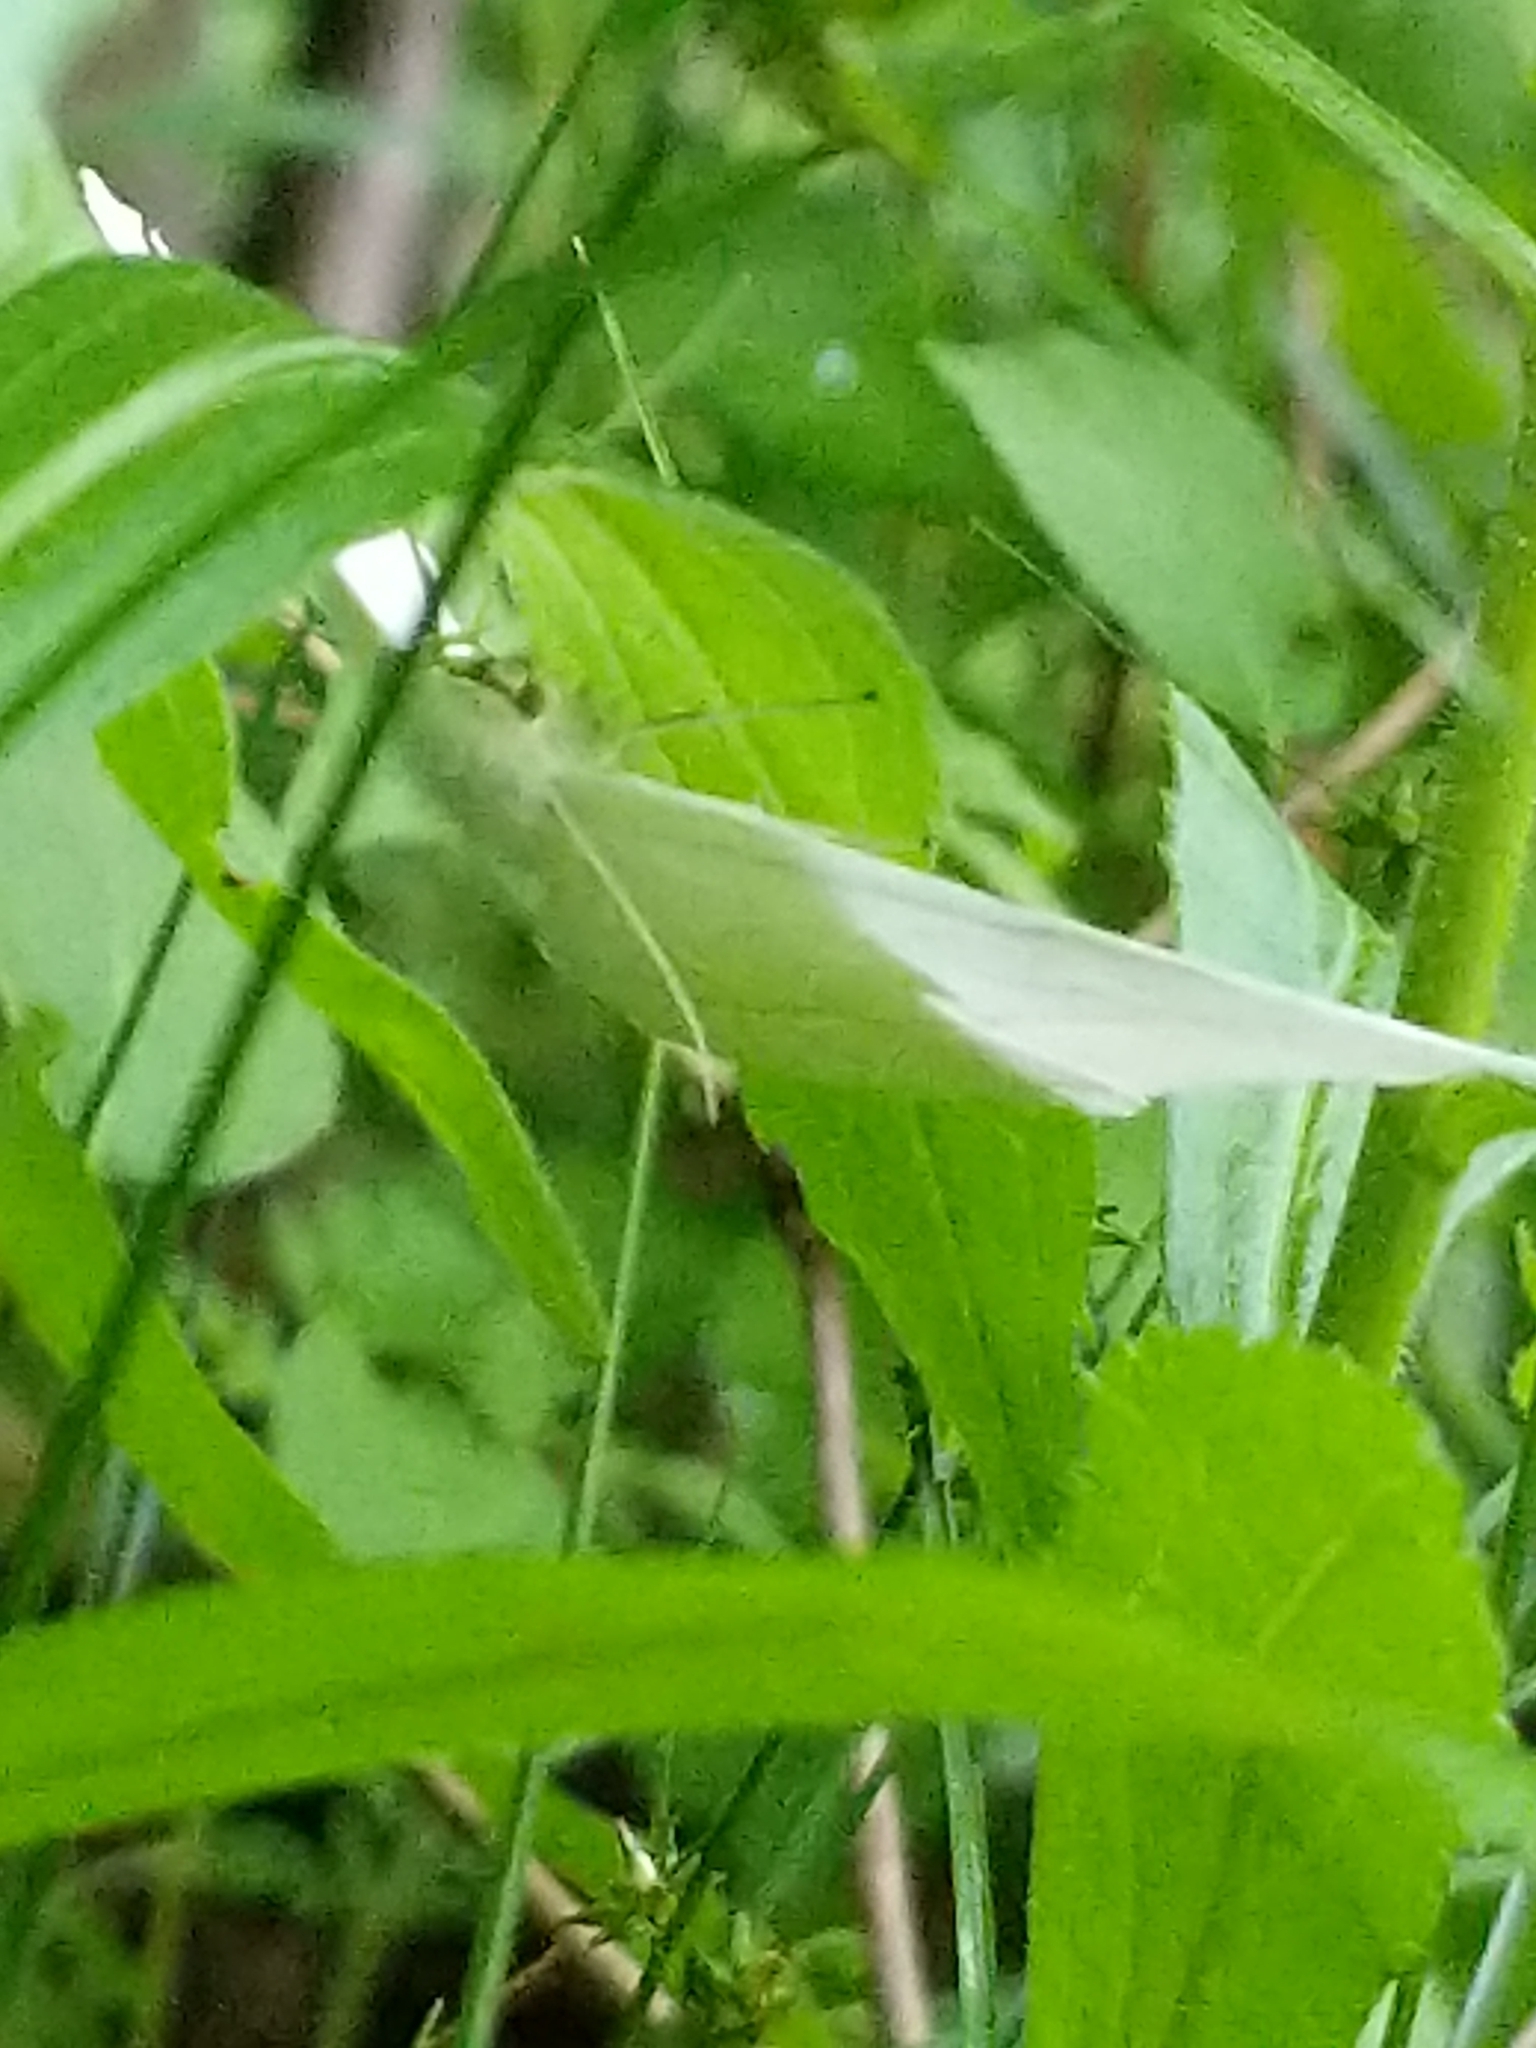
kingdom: Animalia
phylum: Arthropoda
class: Insecta
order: Lepidoptera
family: Geometridae
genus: Campaea
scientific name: Campaea perlata
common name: Fringed looper
